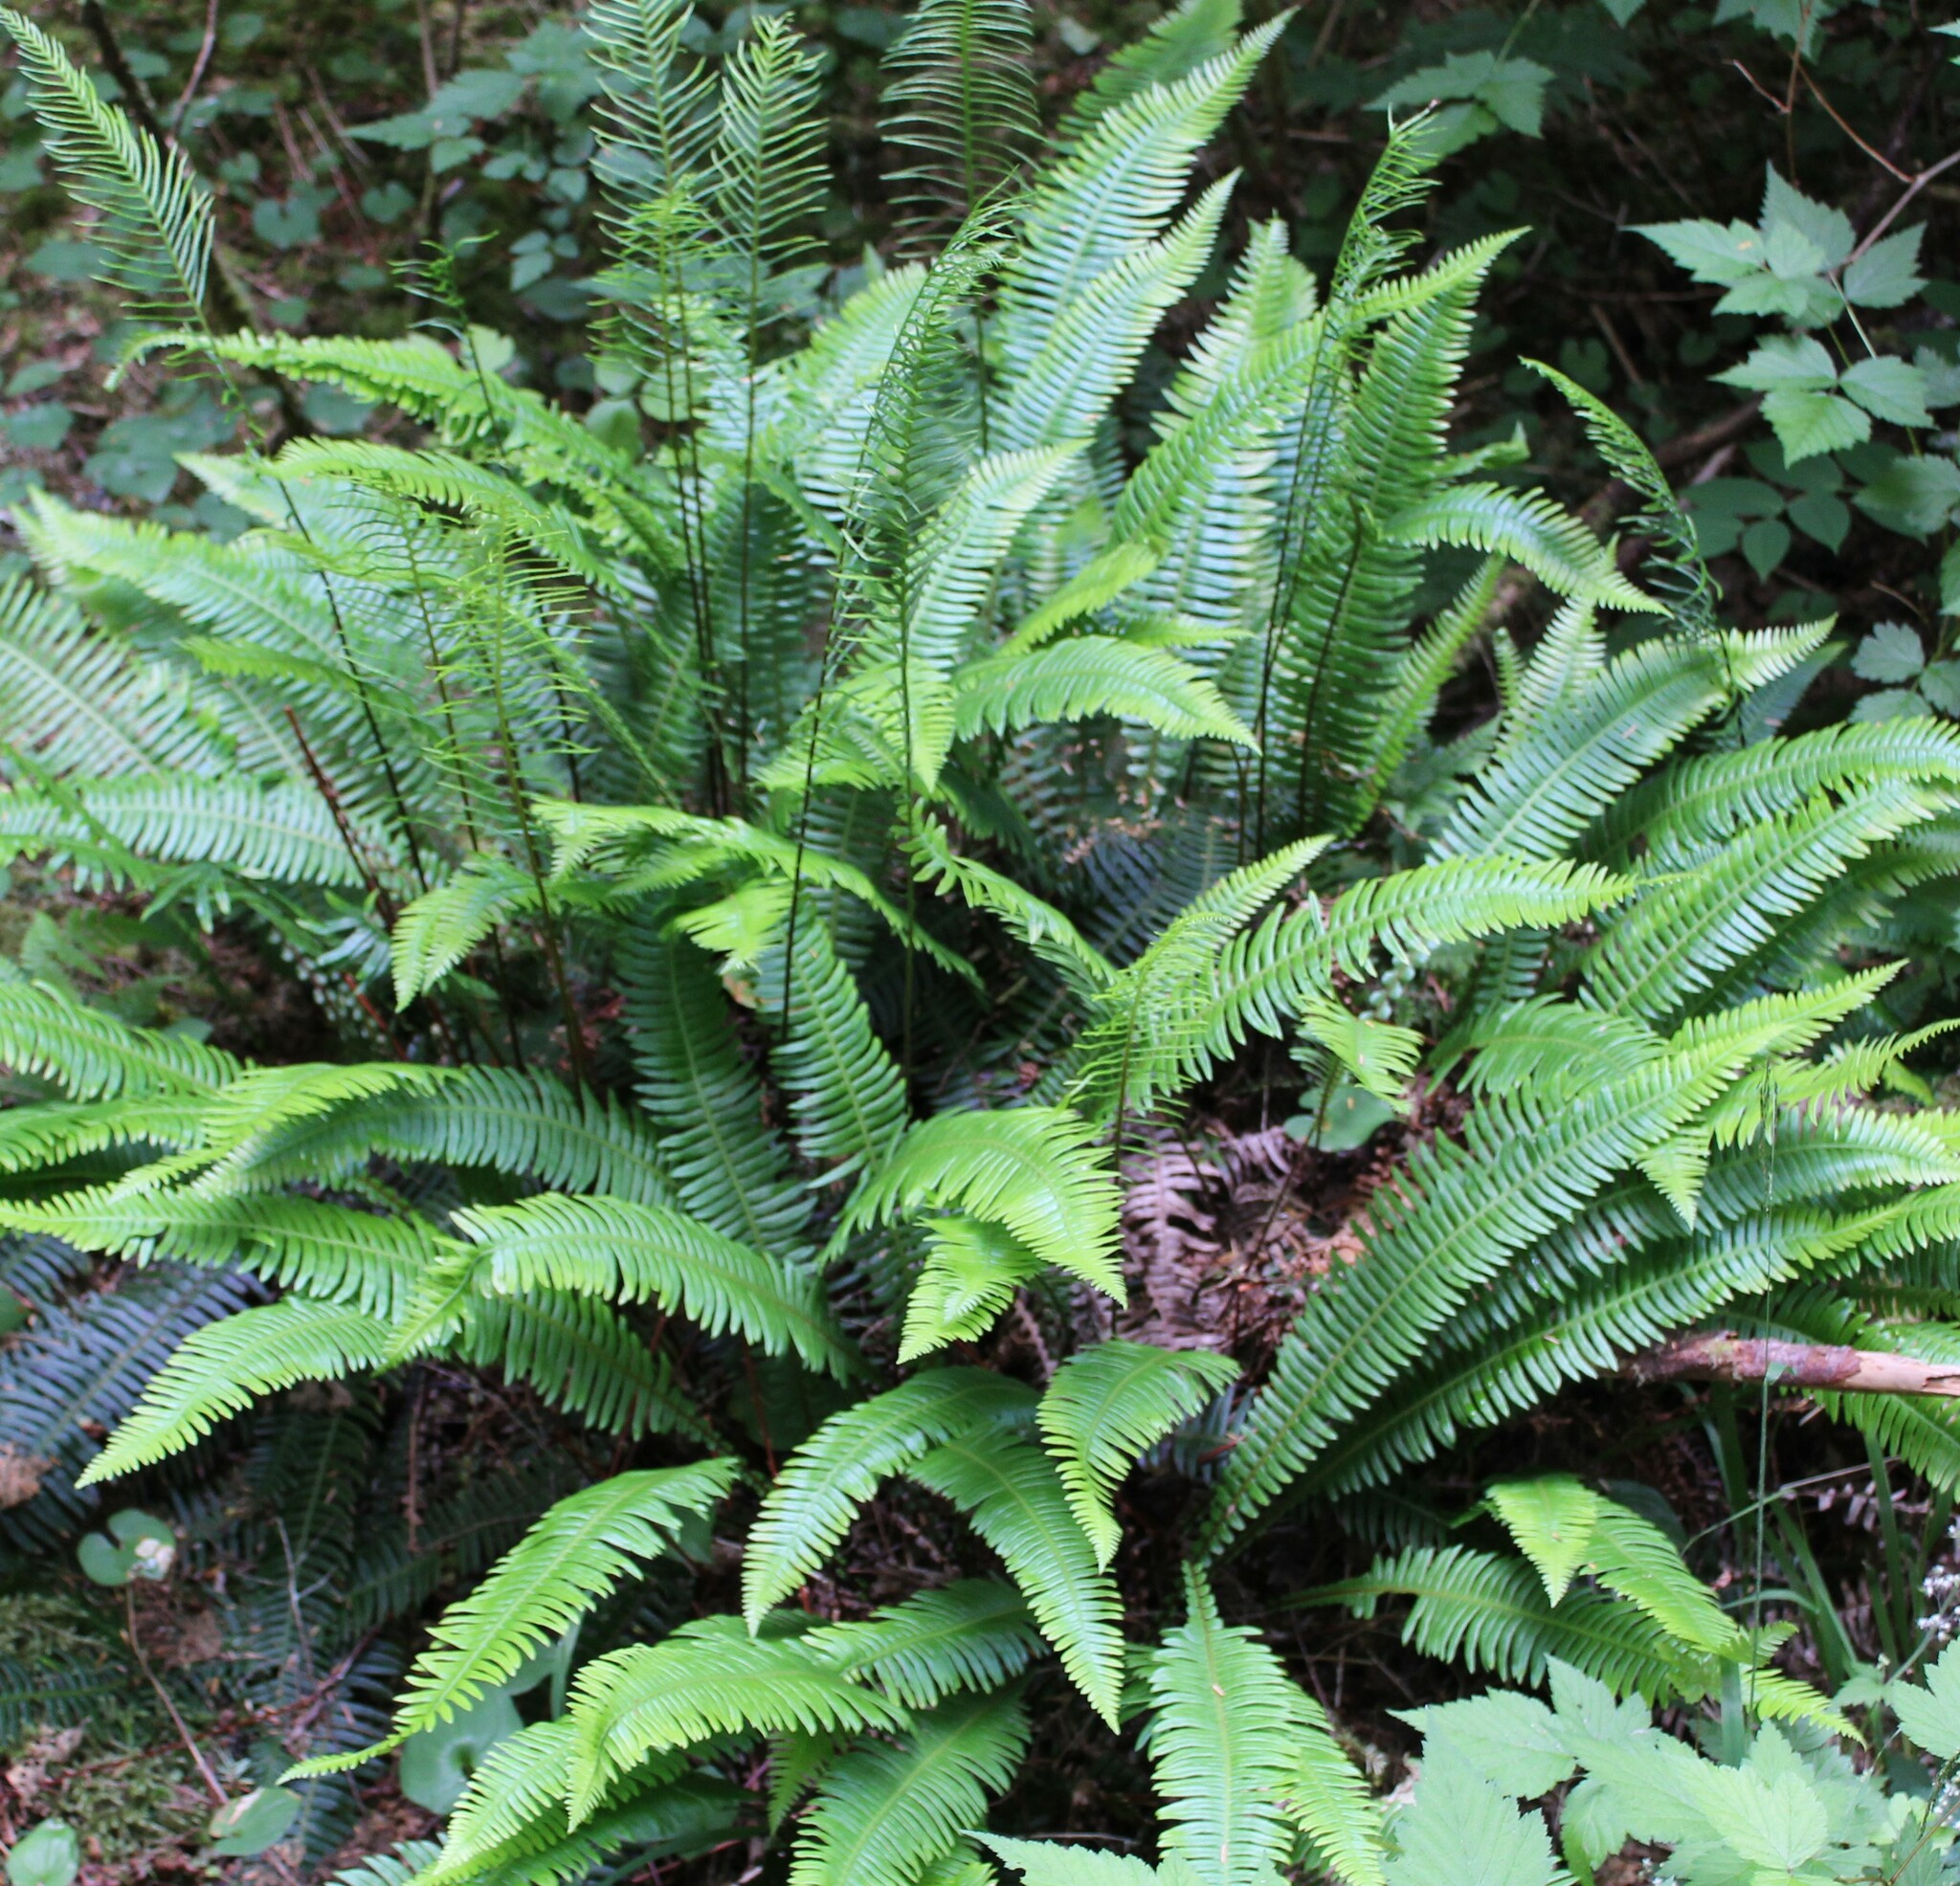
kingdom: Plantae
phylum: Tracheophyta
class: Polypodiopsida
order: Polypodiales
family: Blechnaceae
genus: Struthiopteris
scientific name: Struthiopteris spicant
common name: Deer fern
